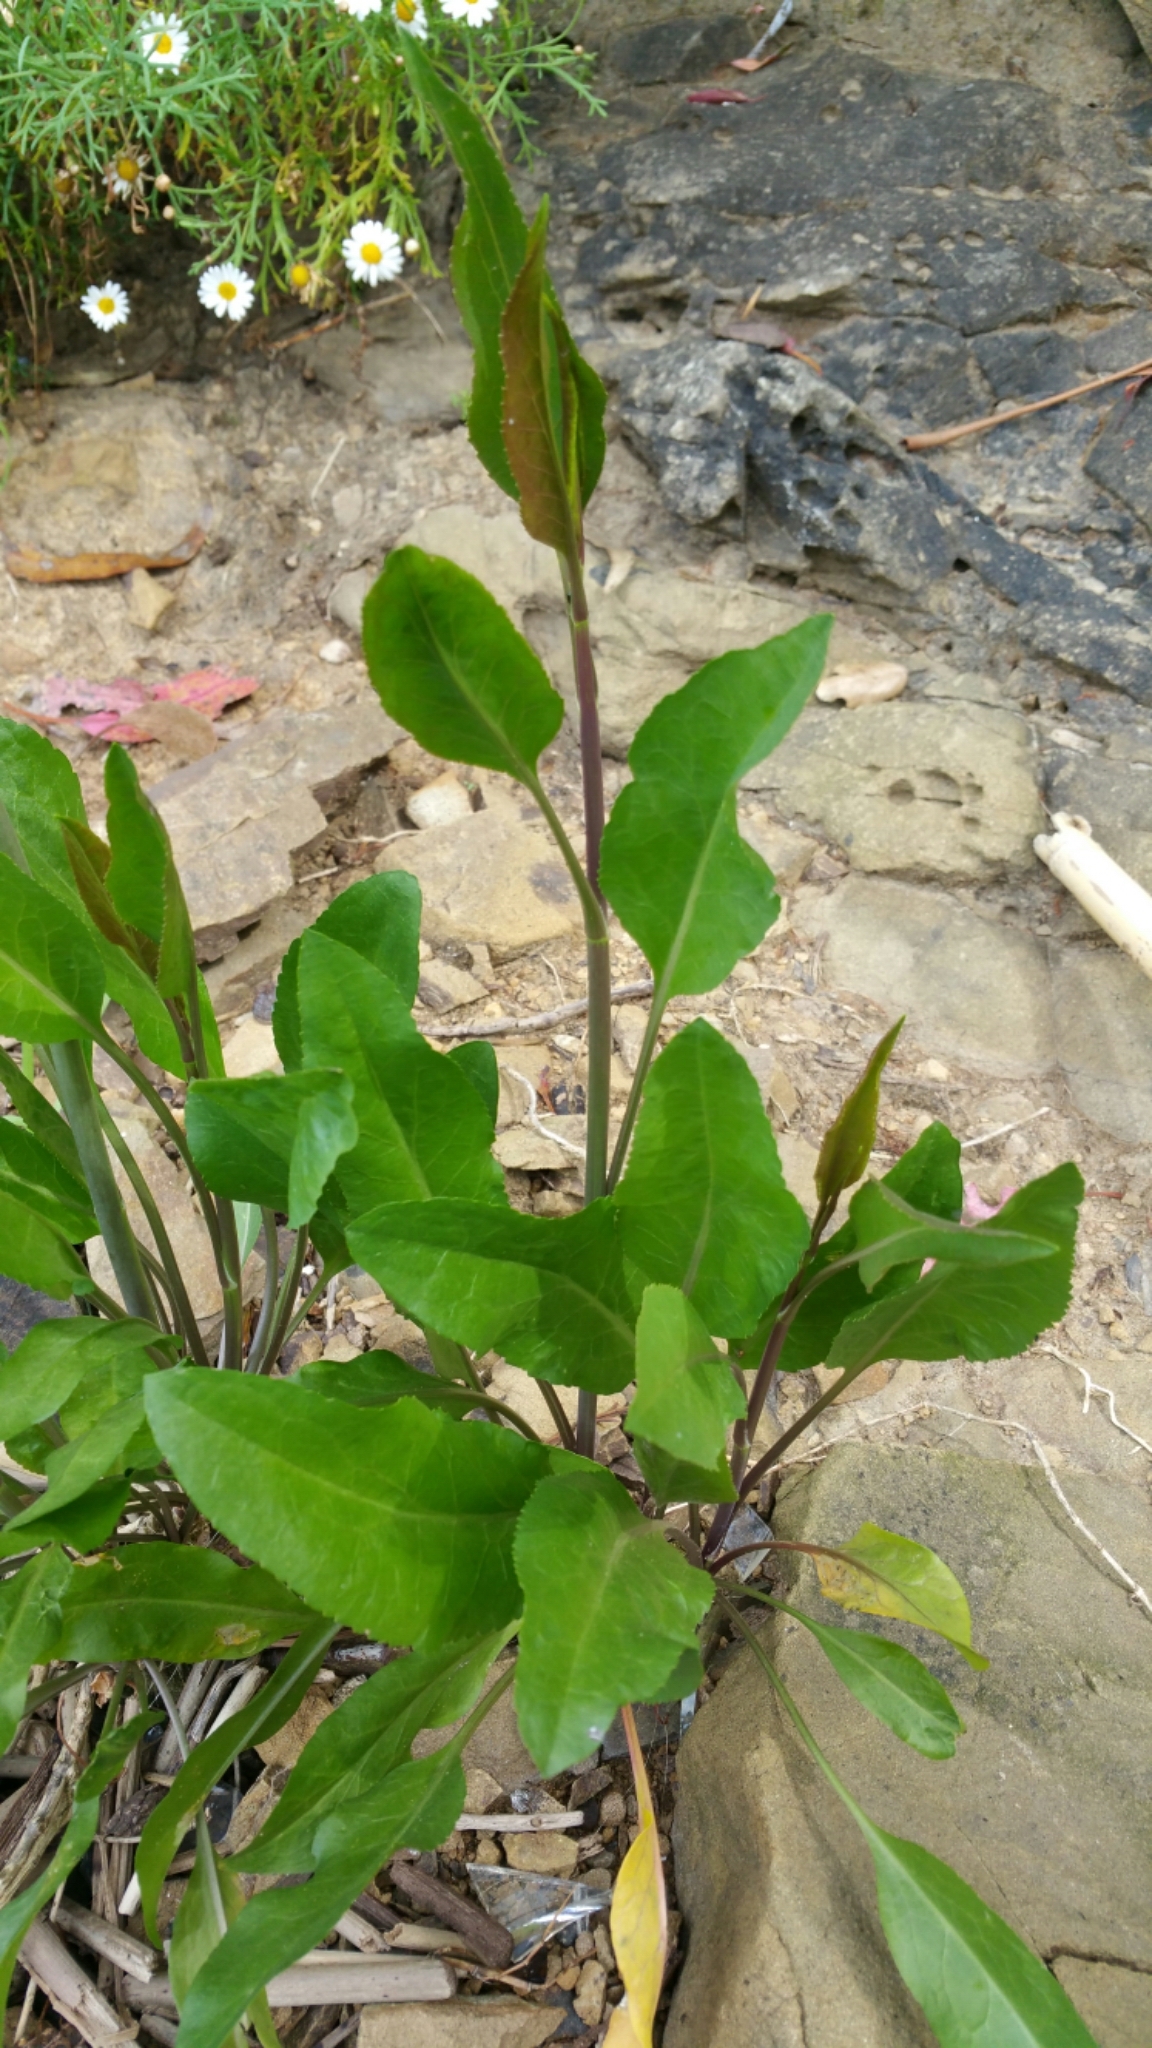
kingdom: Plantae
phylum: Tracheophyta
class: Magnoliopsida
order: Brassicales
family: Brassicaceae
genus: Lepidium
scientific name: Lepidium latifolium
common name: Dittander
